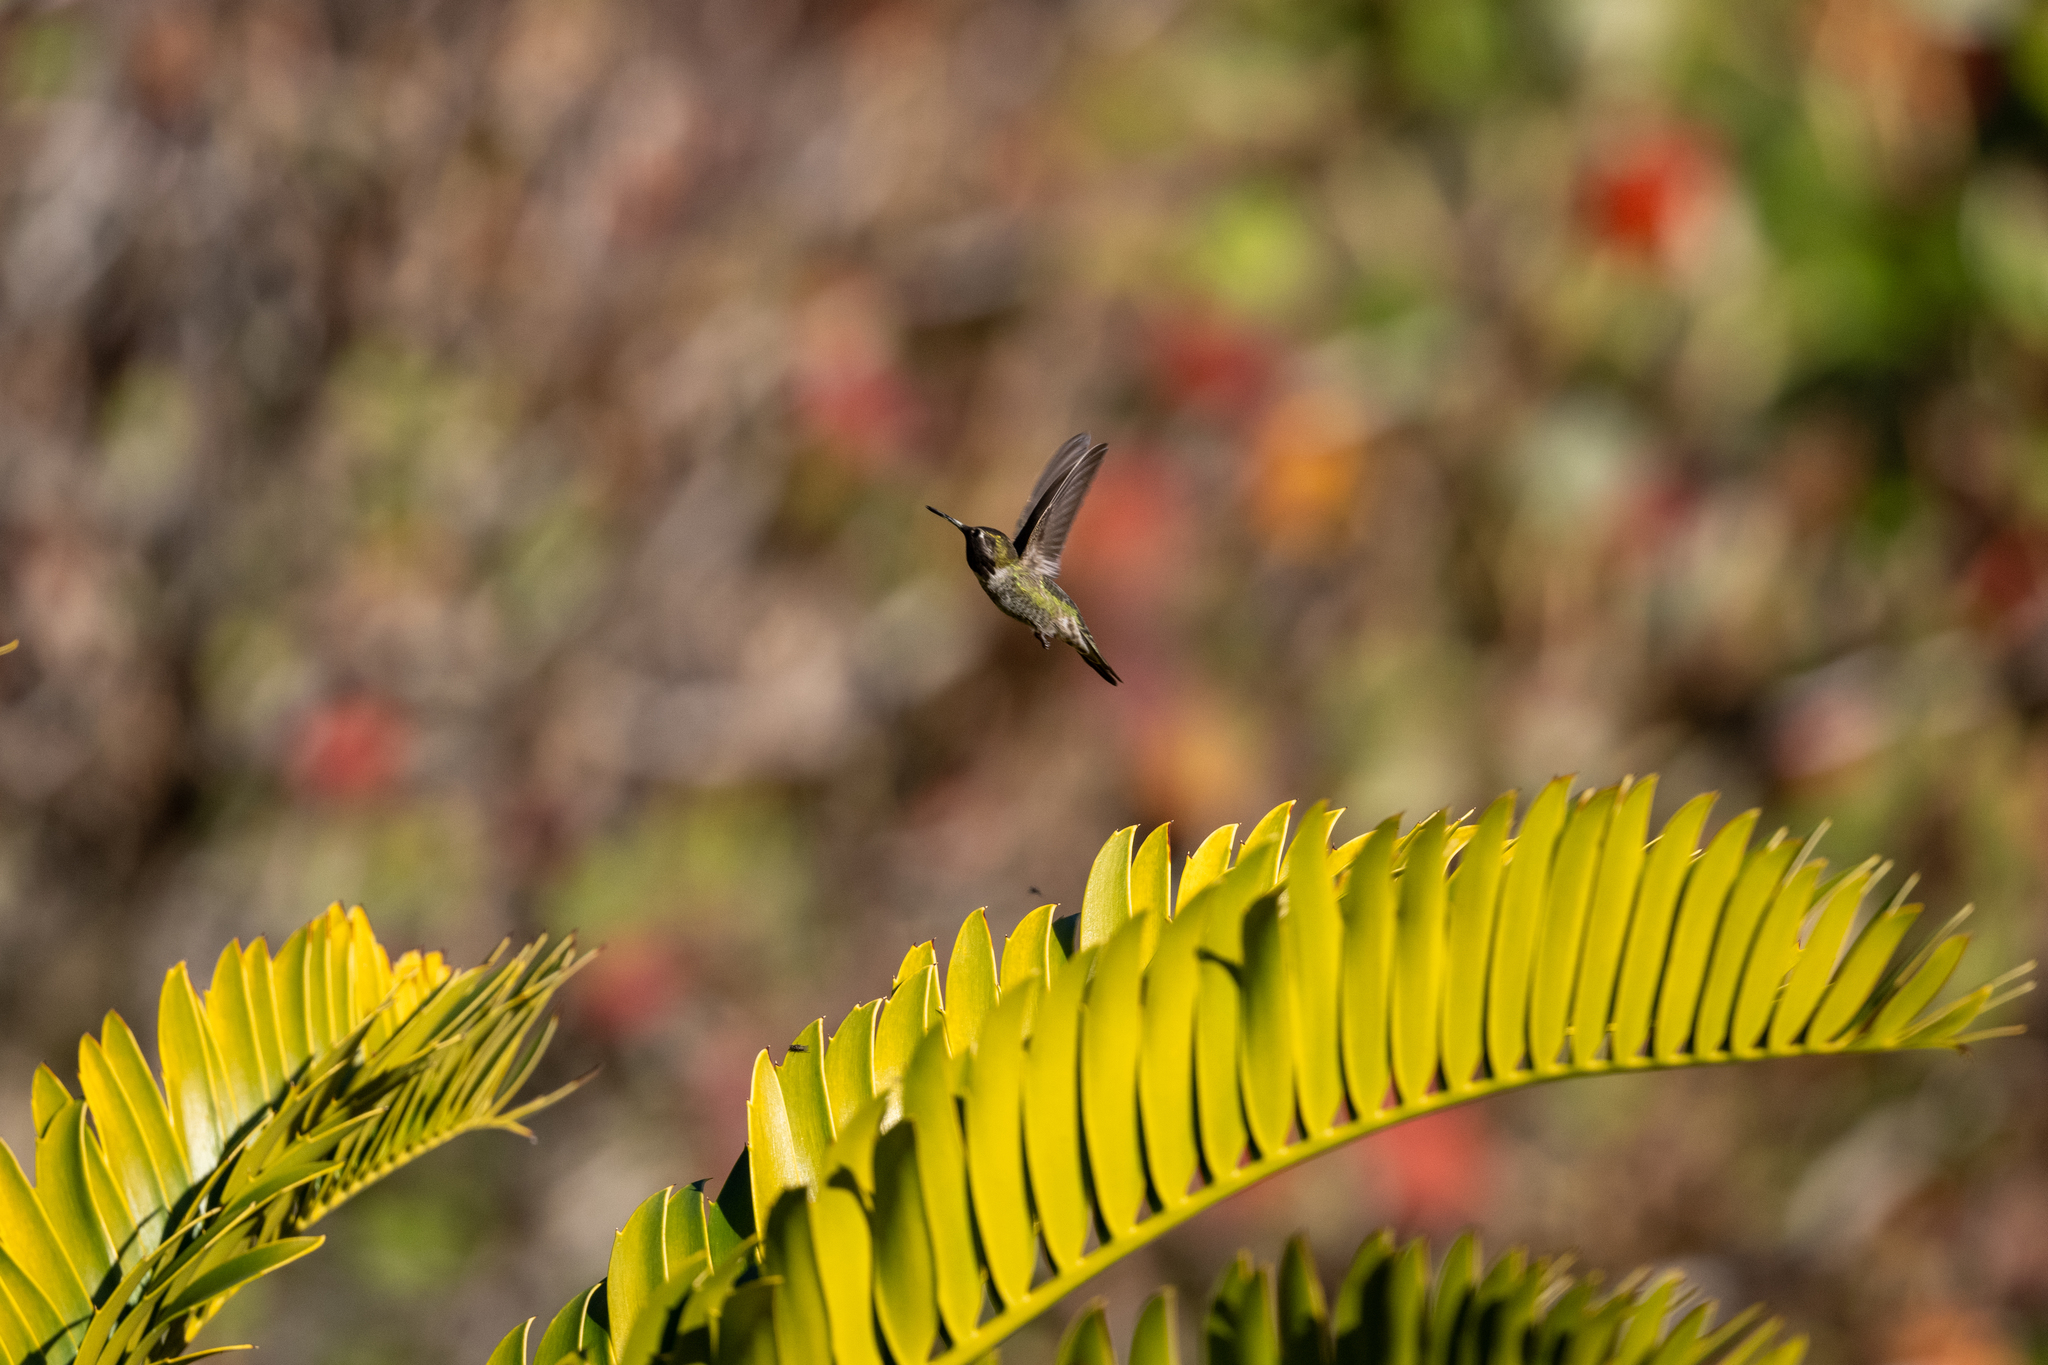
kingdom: Animalia
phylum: Chordata
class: Aves
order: Apodiformes
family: Trochilidae
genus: Calypte
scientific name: Calypte anna
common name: Anna's hummingbird
